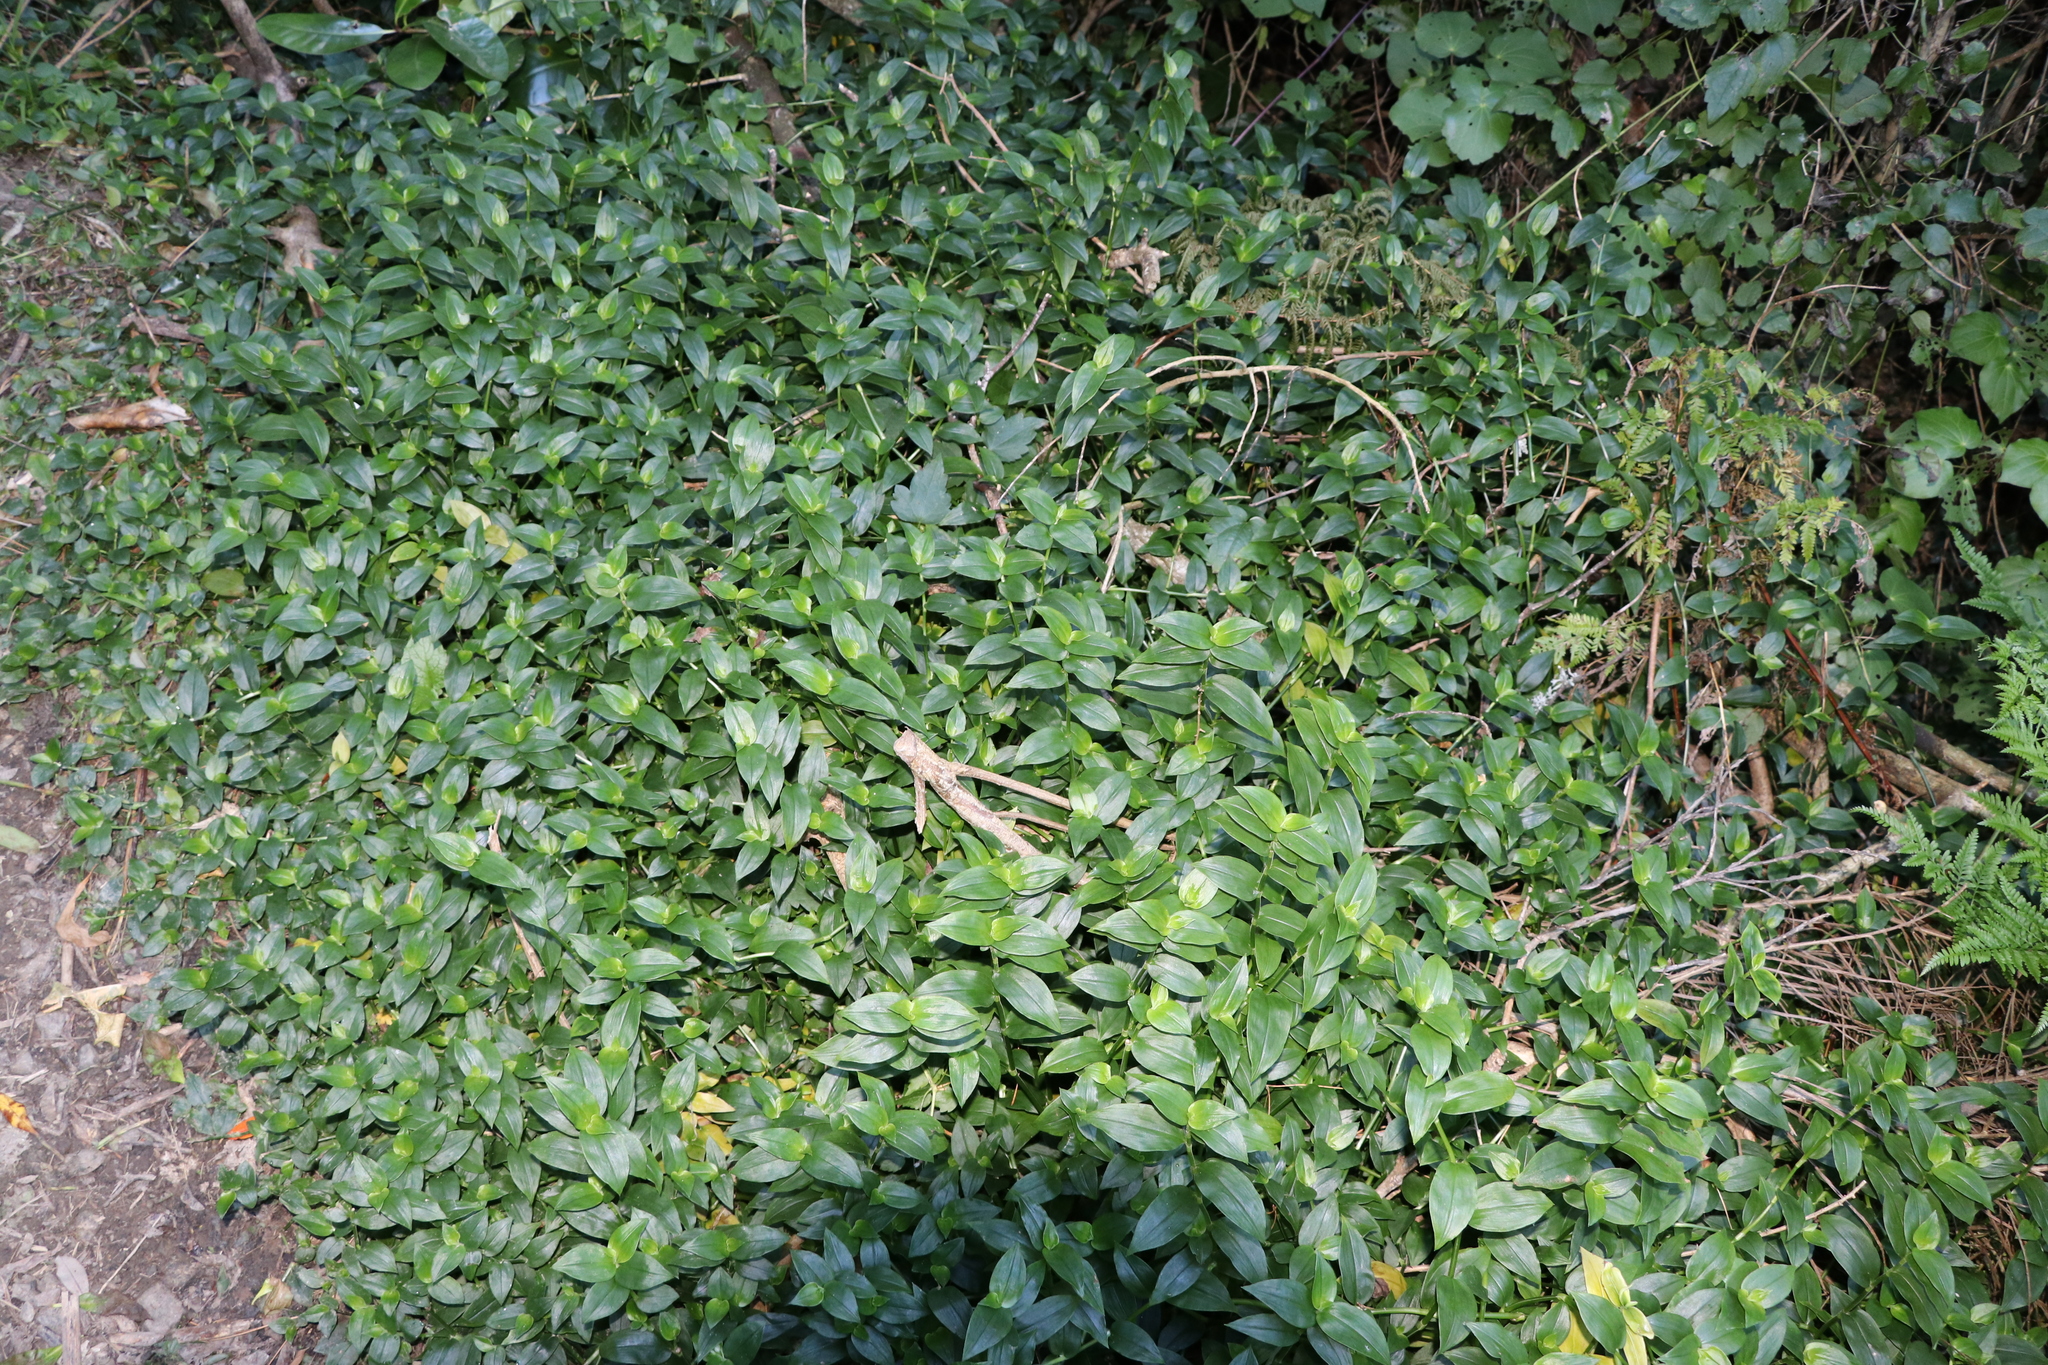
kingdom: Plantae
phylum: Tracheophyta
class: Liliopsida
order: Commelinales
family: Commelinaceae
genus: Tradescantia
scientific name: Tradescantia fluminensis
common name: Wandering-jew
